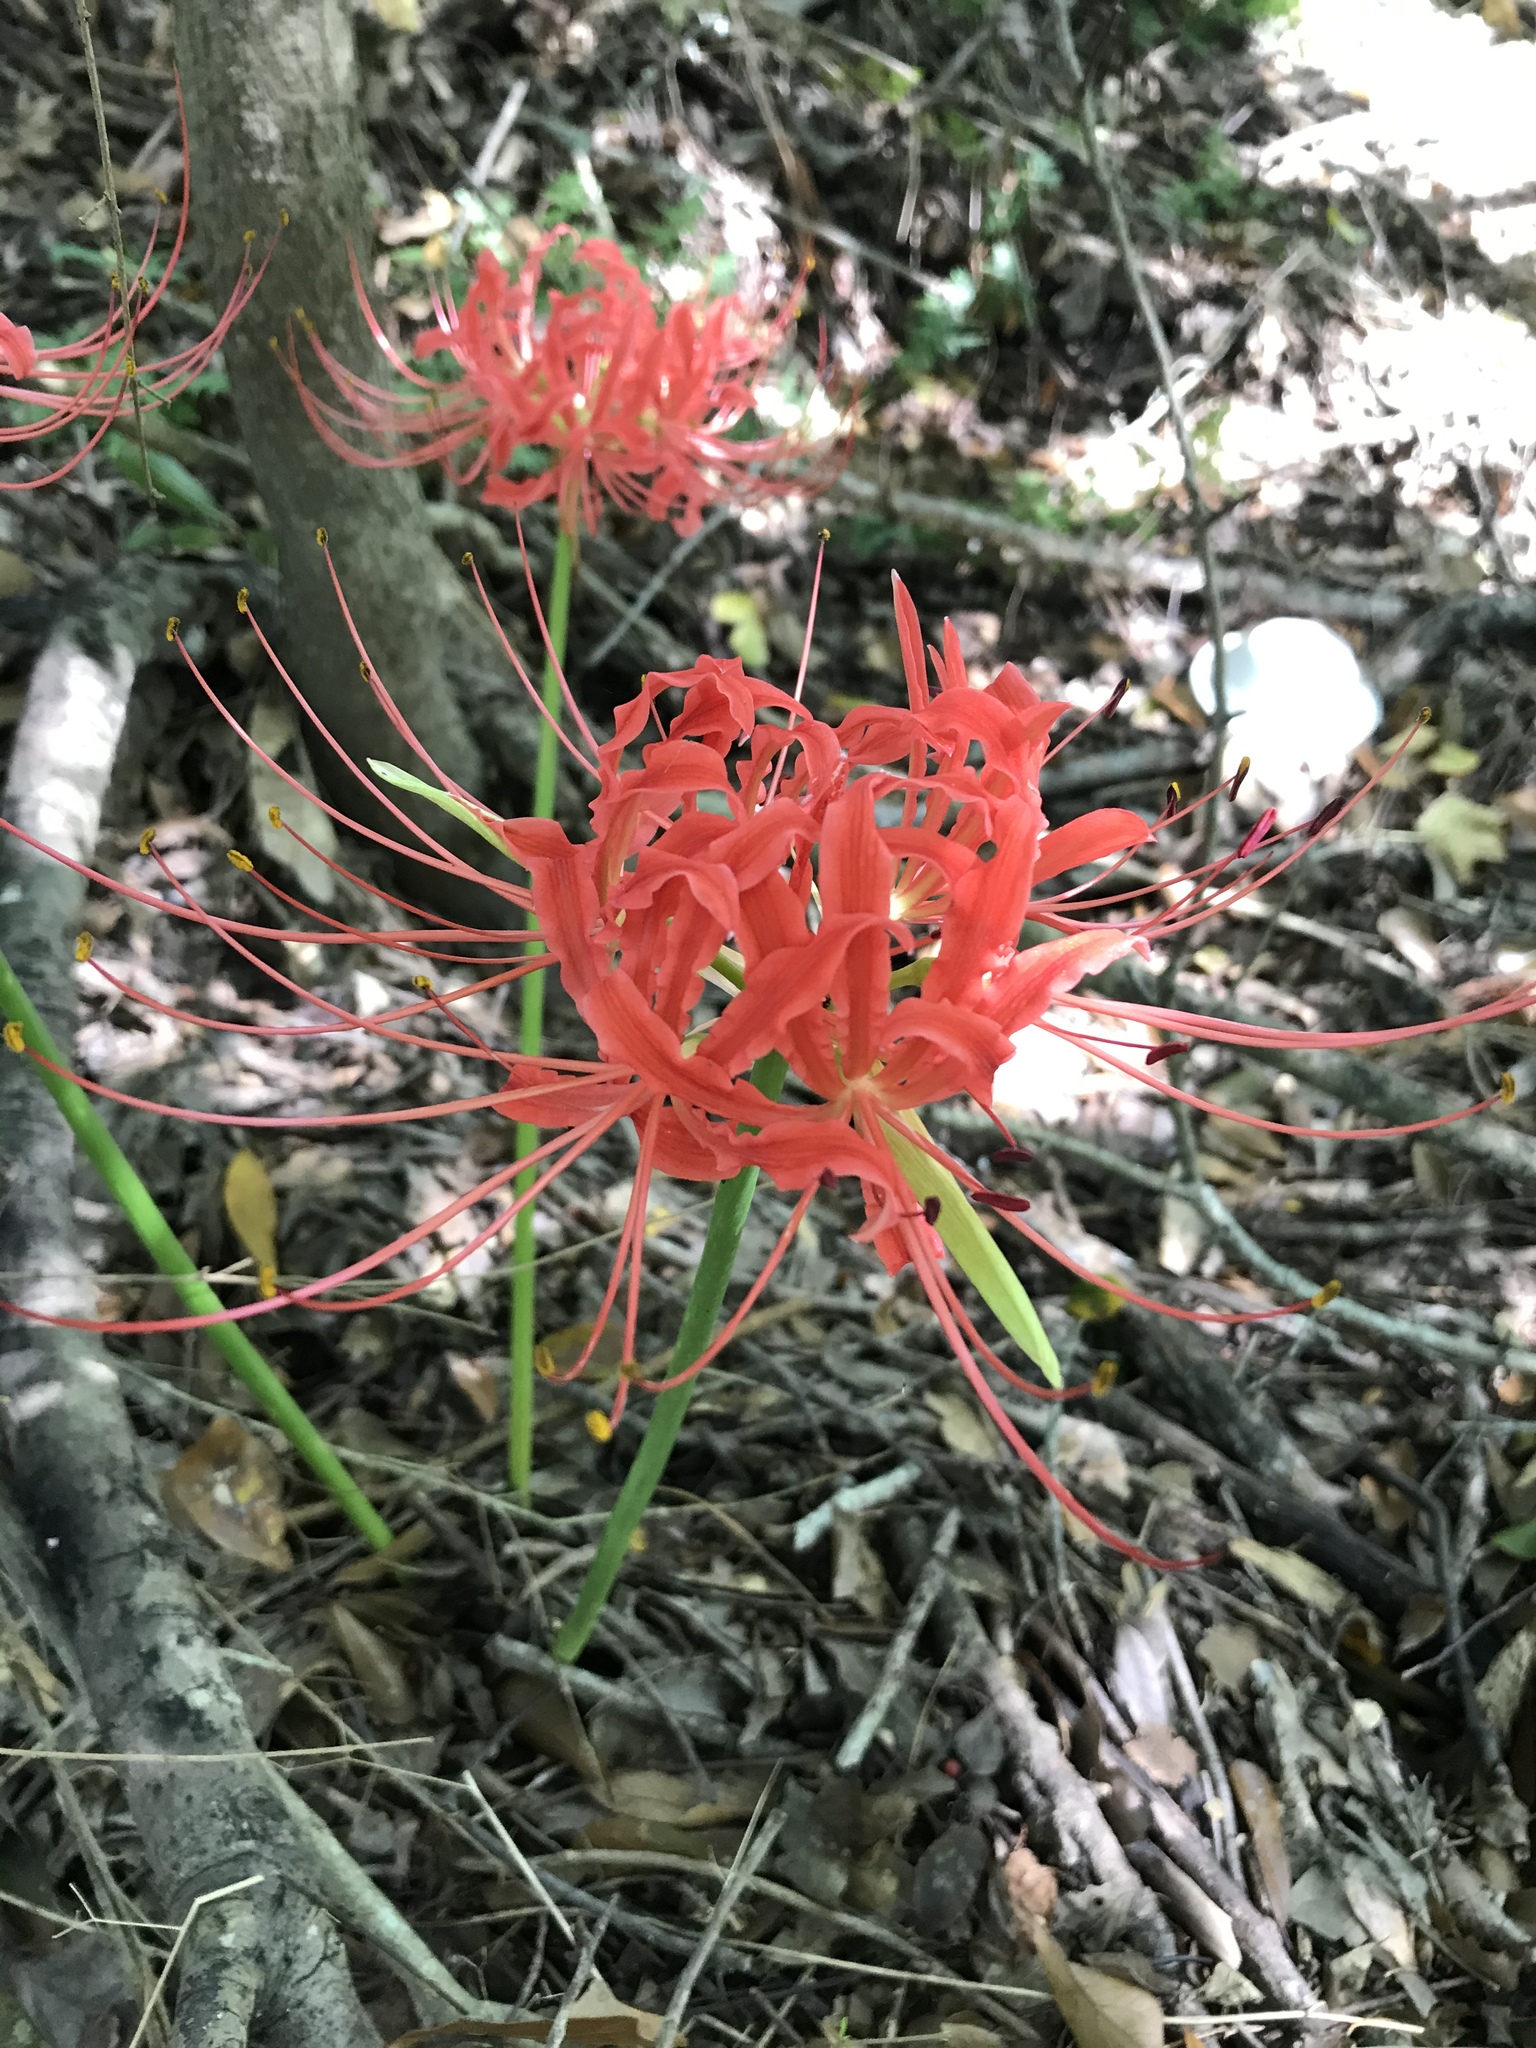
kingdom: Plantae
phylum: Tracheophyta
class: Liliopsida
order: Asparagales
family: Amaryllidaceae
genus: Lycoris
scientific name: Lycoris radiata
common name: Red spider lily
